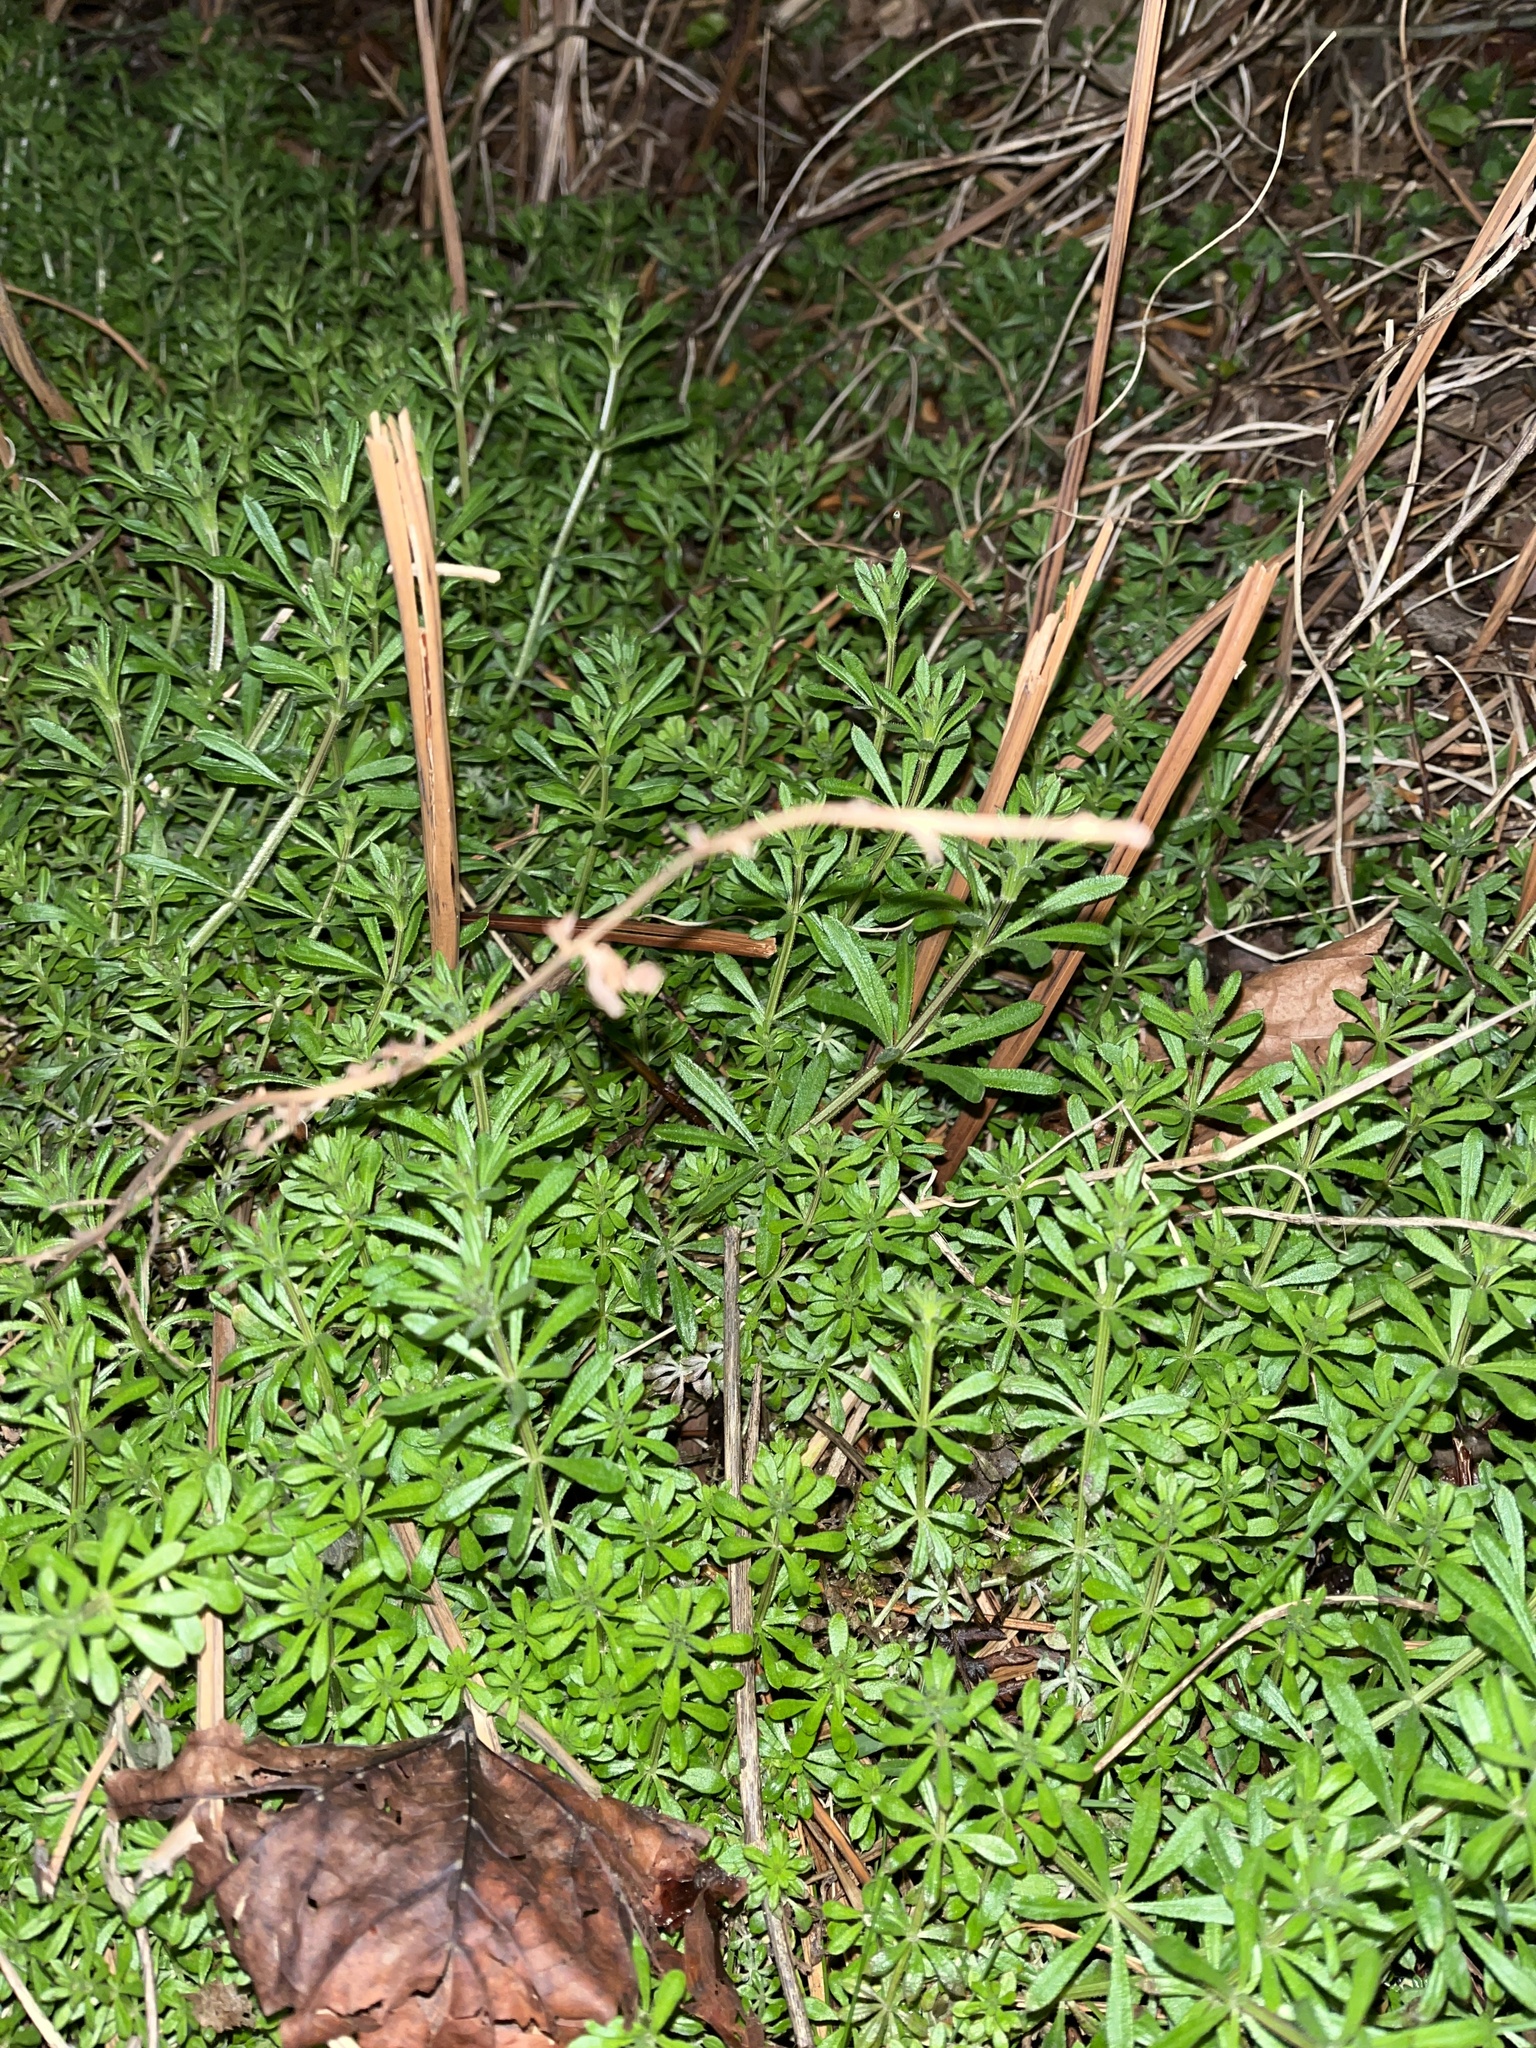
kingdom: Plantae
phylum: Tracheophyta
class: Magnoliopsida
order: Gentianales
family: Rubiaceae
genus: Galium
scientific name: Galium aparine
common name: Cleavers
